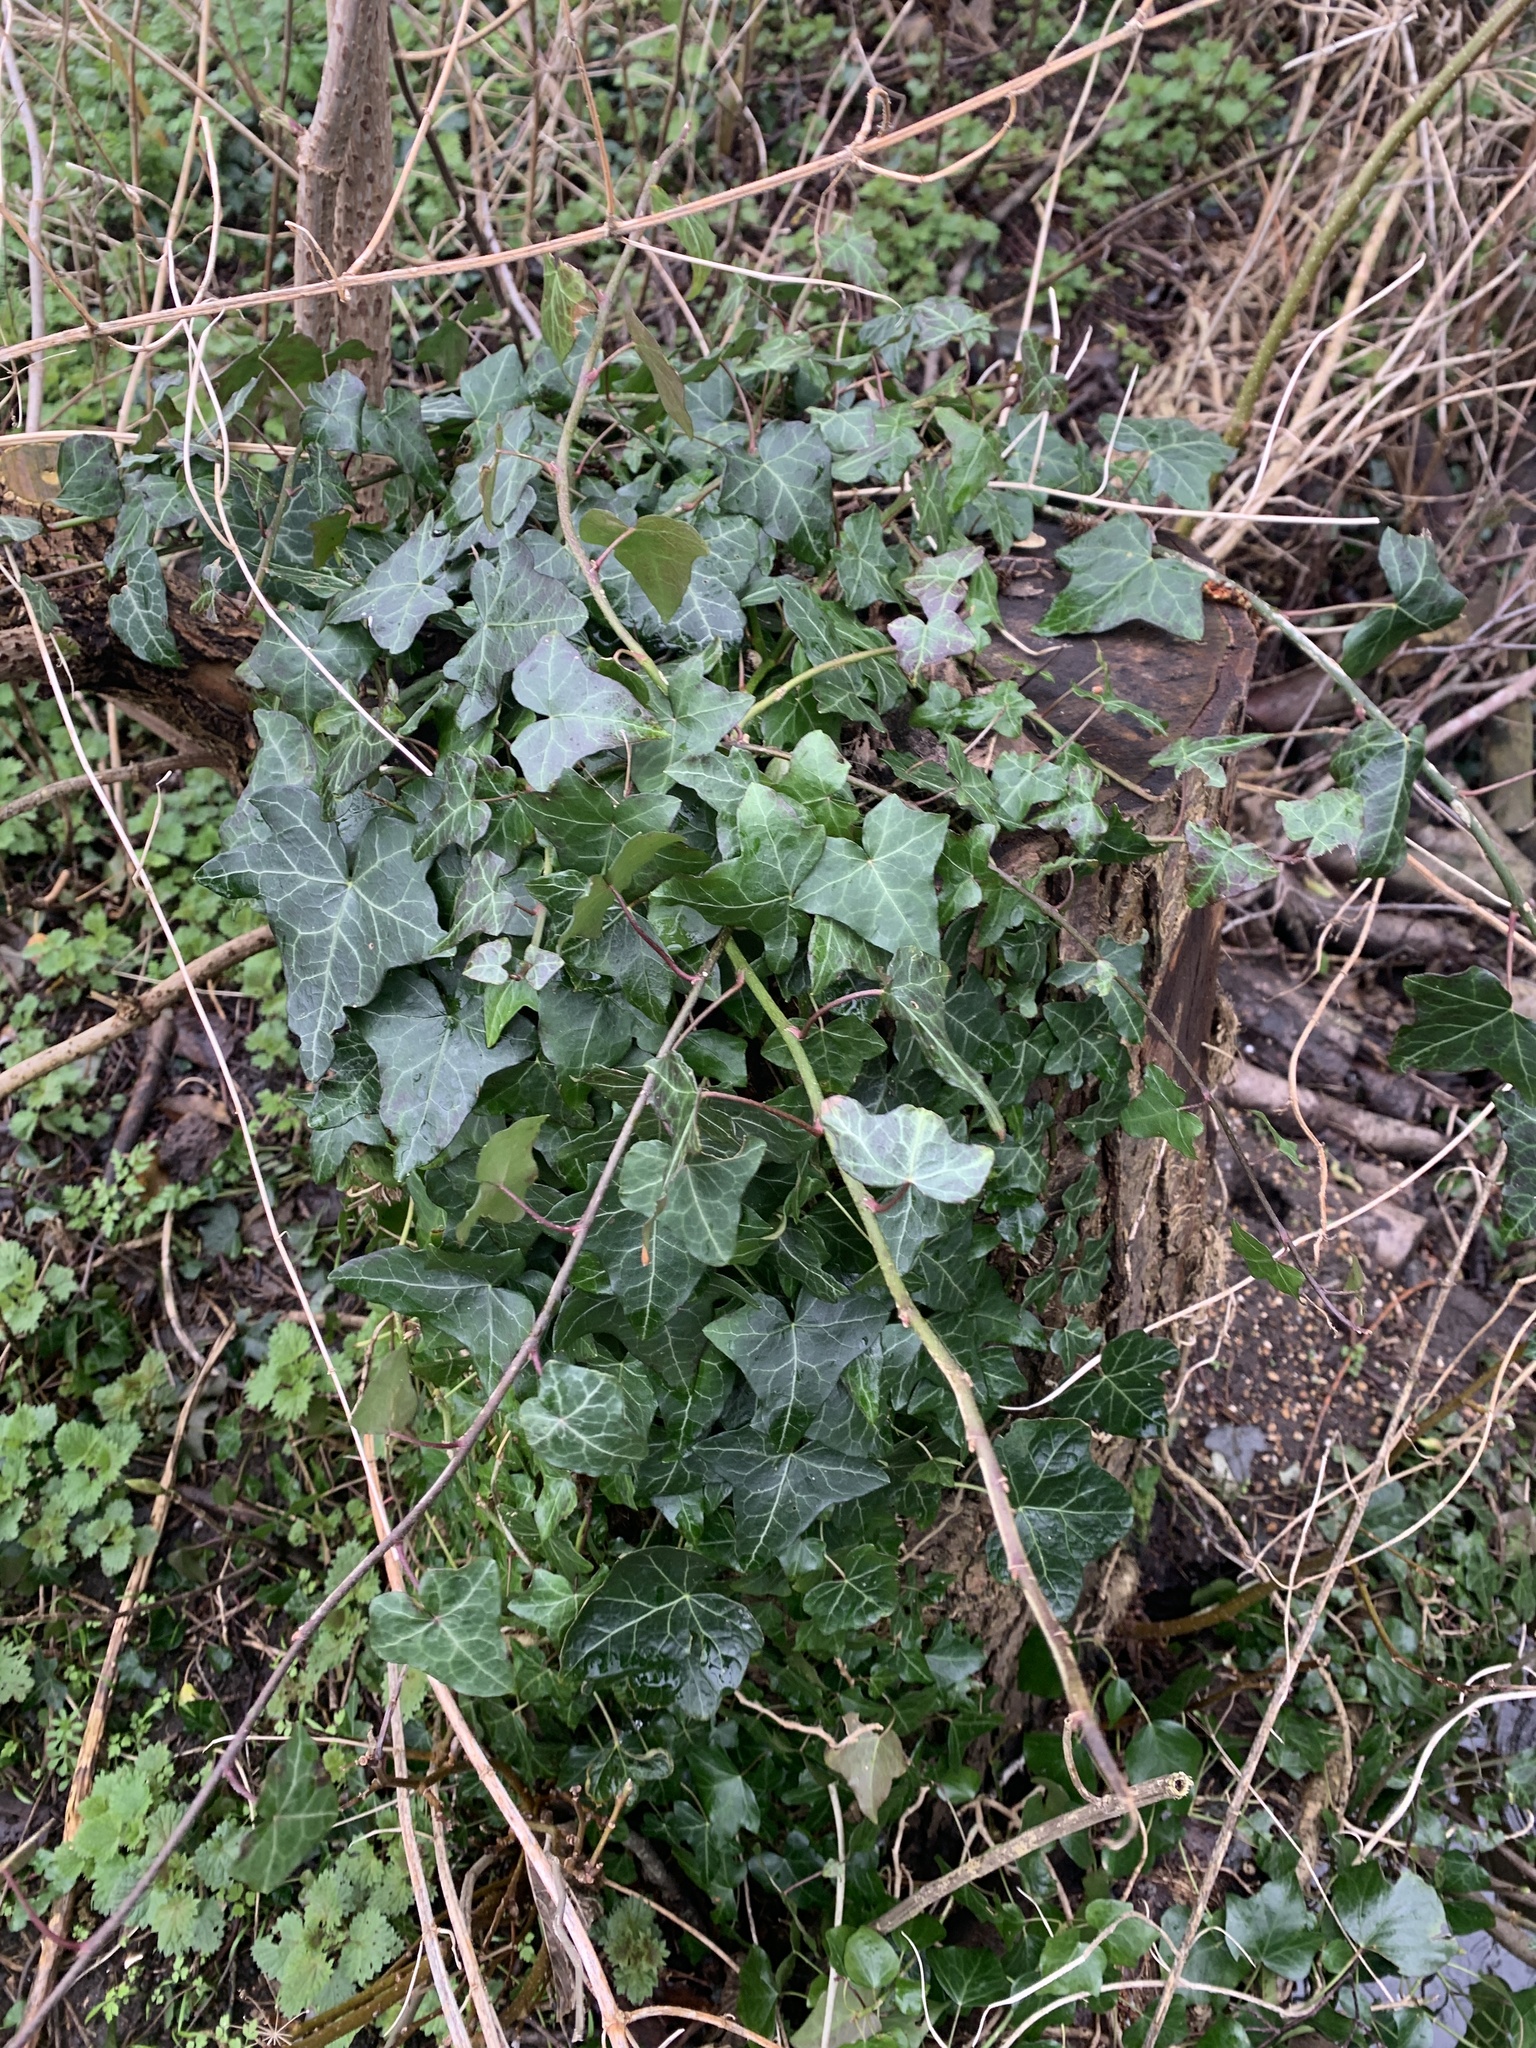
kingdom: Plantae
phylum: Tracheophyta
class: Magnoliopsida
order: Apiales
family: Araliaceae
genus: Hedera
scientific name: Hedera helix
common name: Ivy
